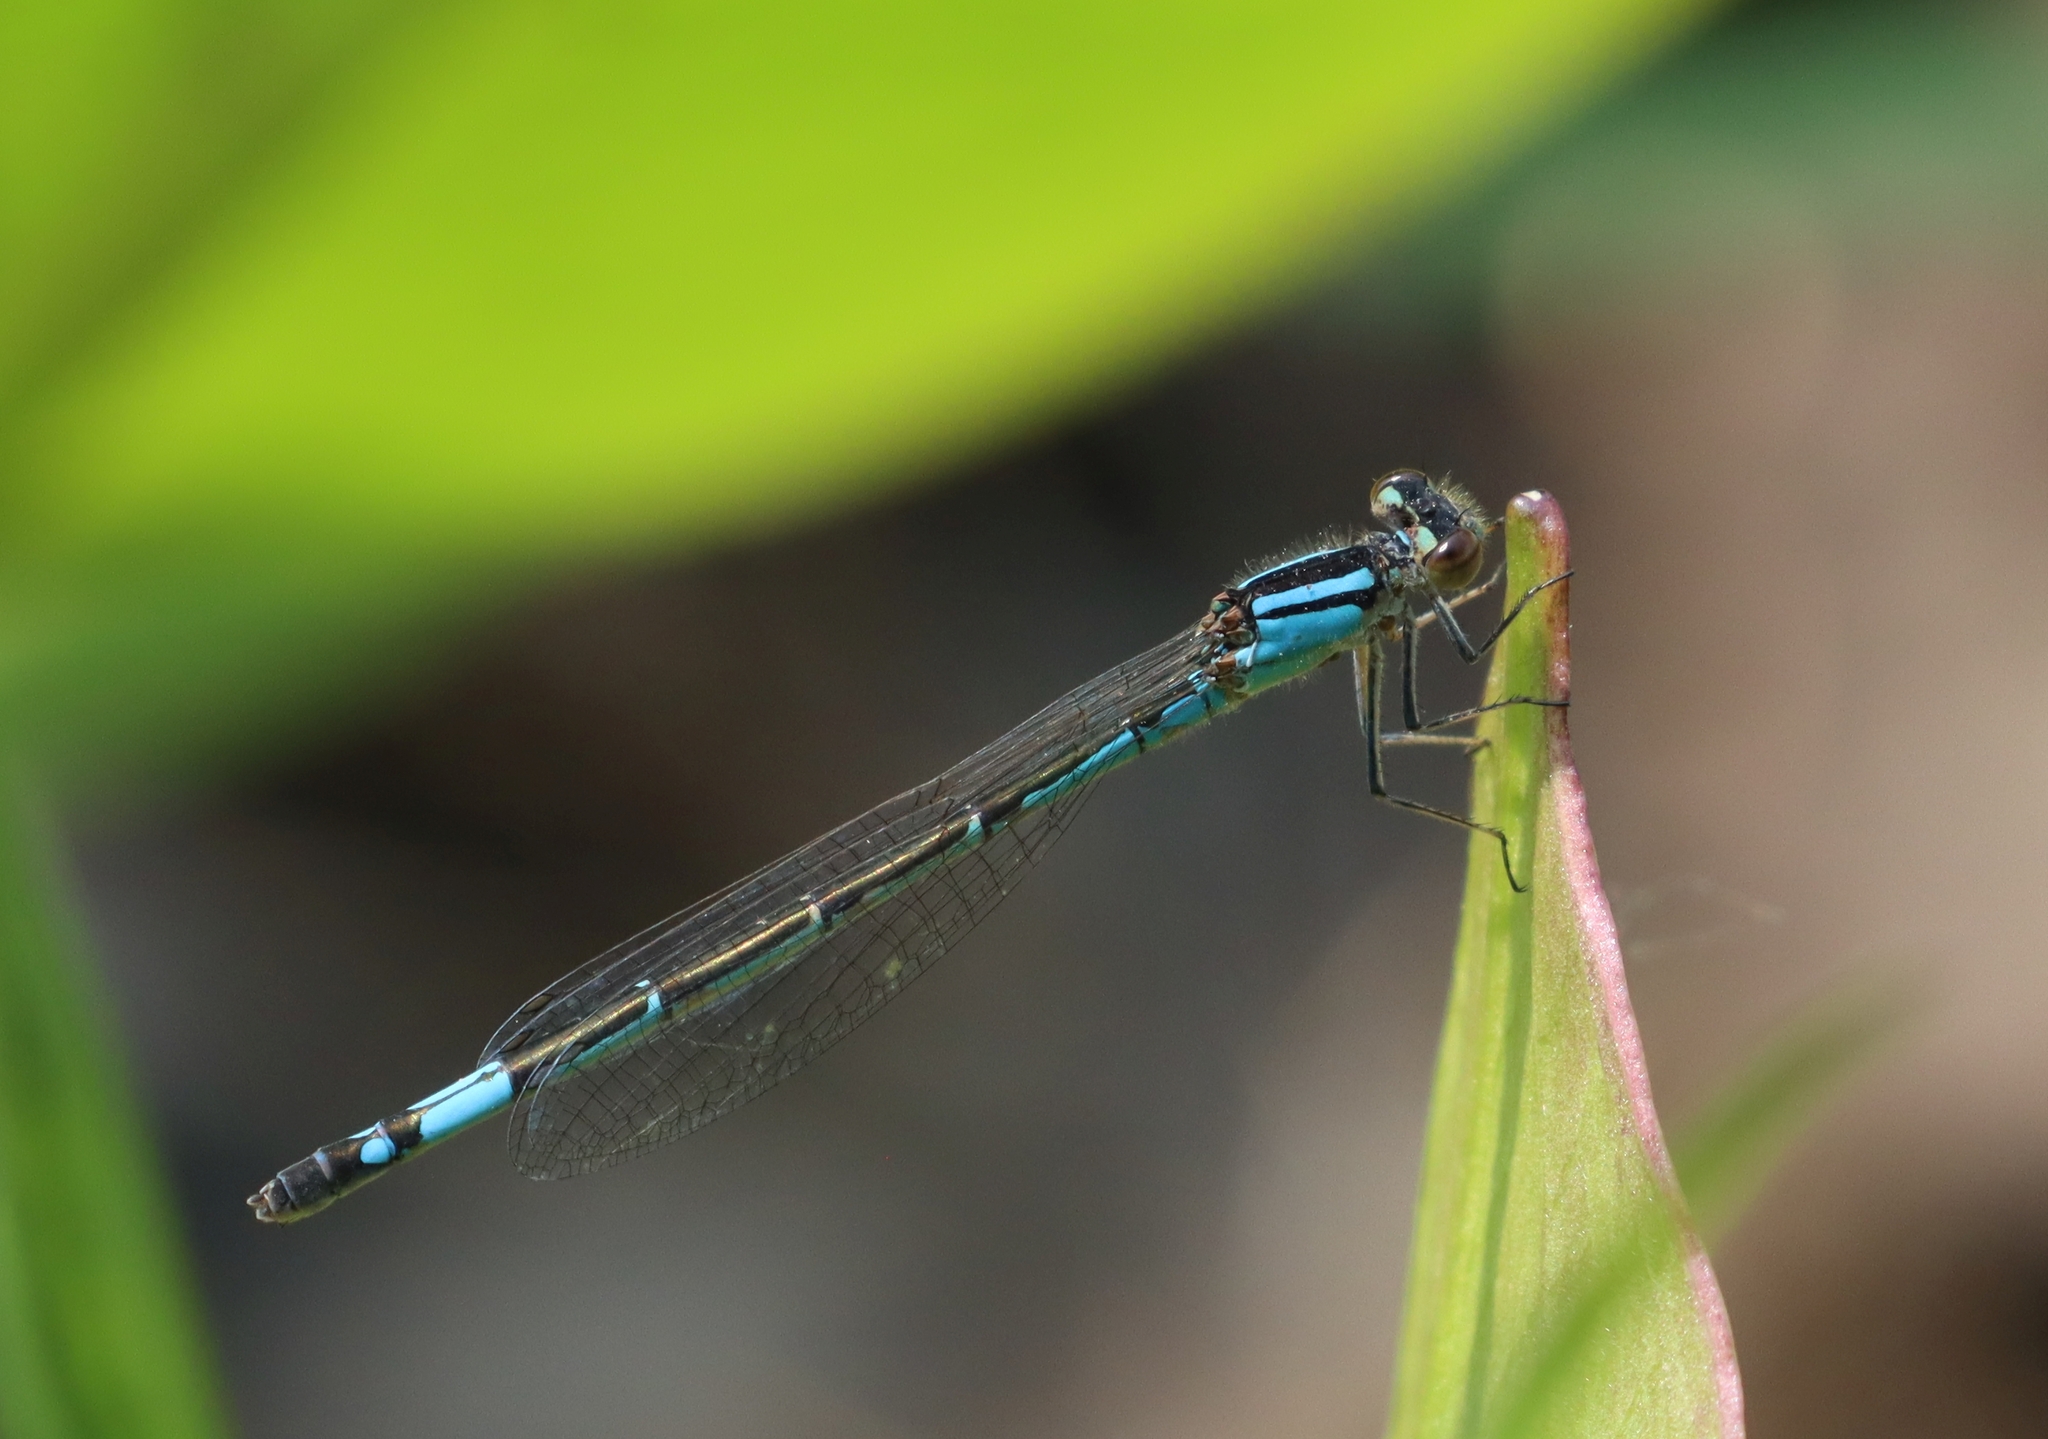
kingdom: Animalia
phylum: Arthropoda
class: Insecta
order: Odonata
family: Coenagrionidae
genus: Enallagma
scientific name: Enallagma aspersum
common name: Azure bluet
